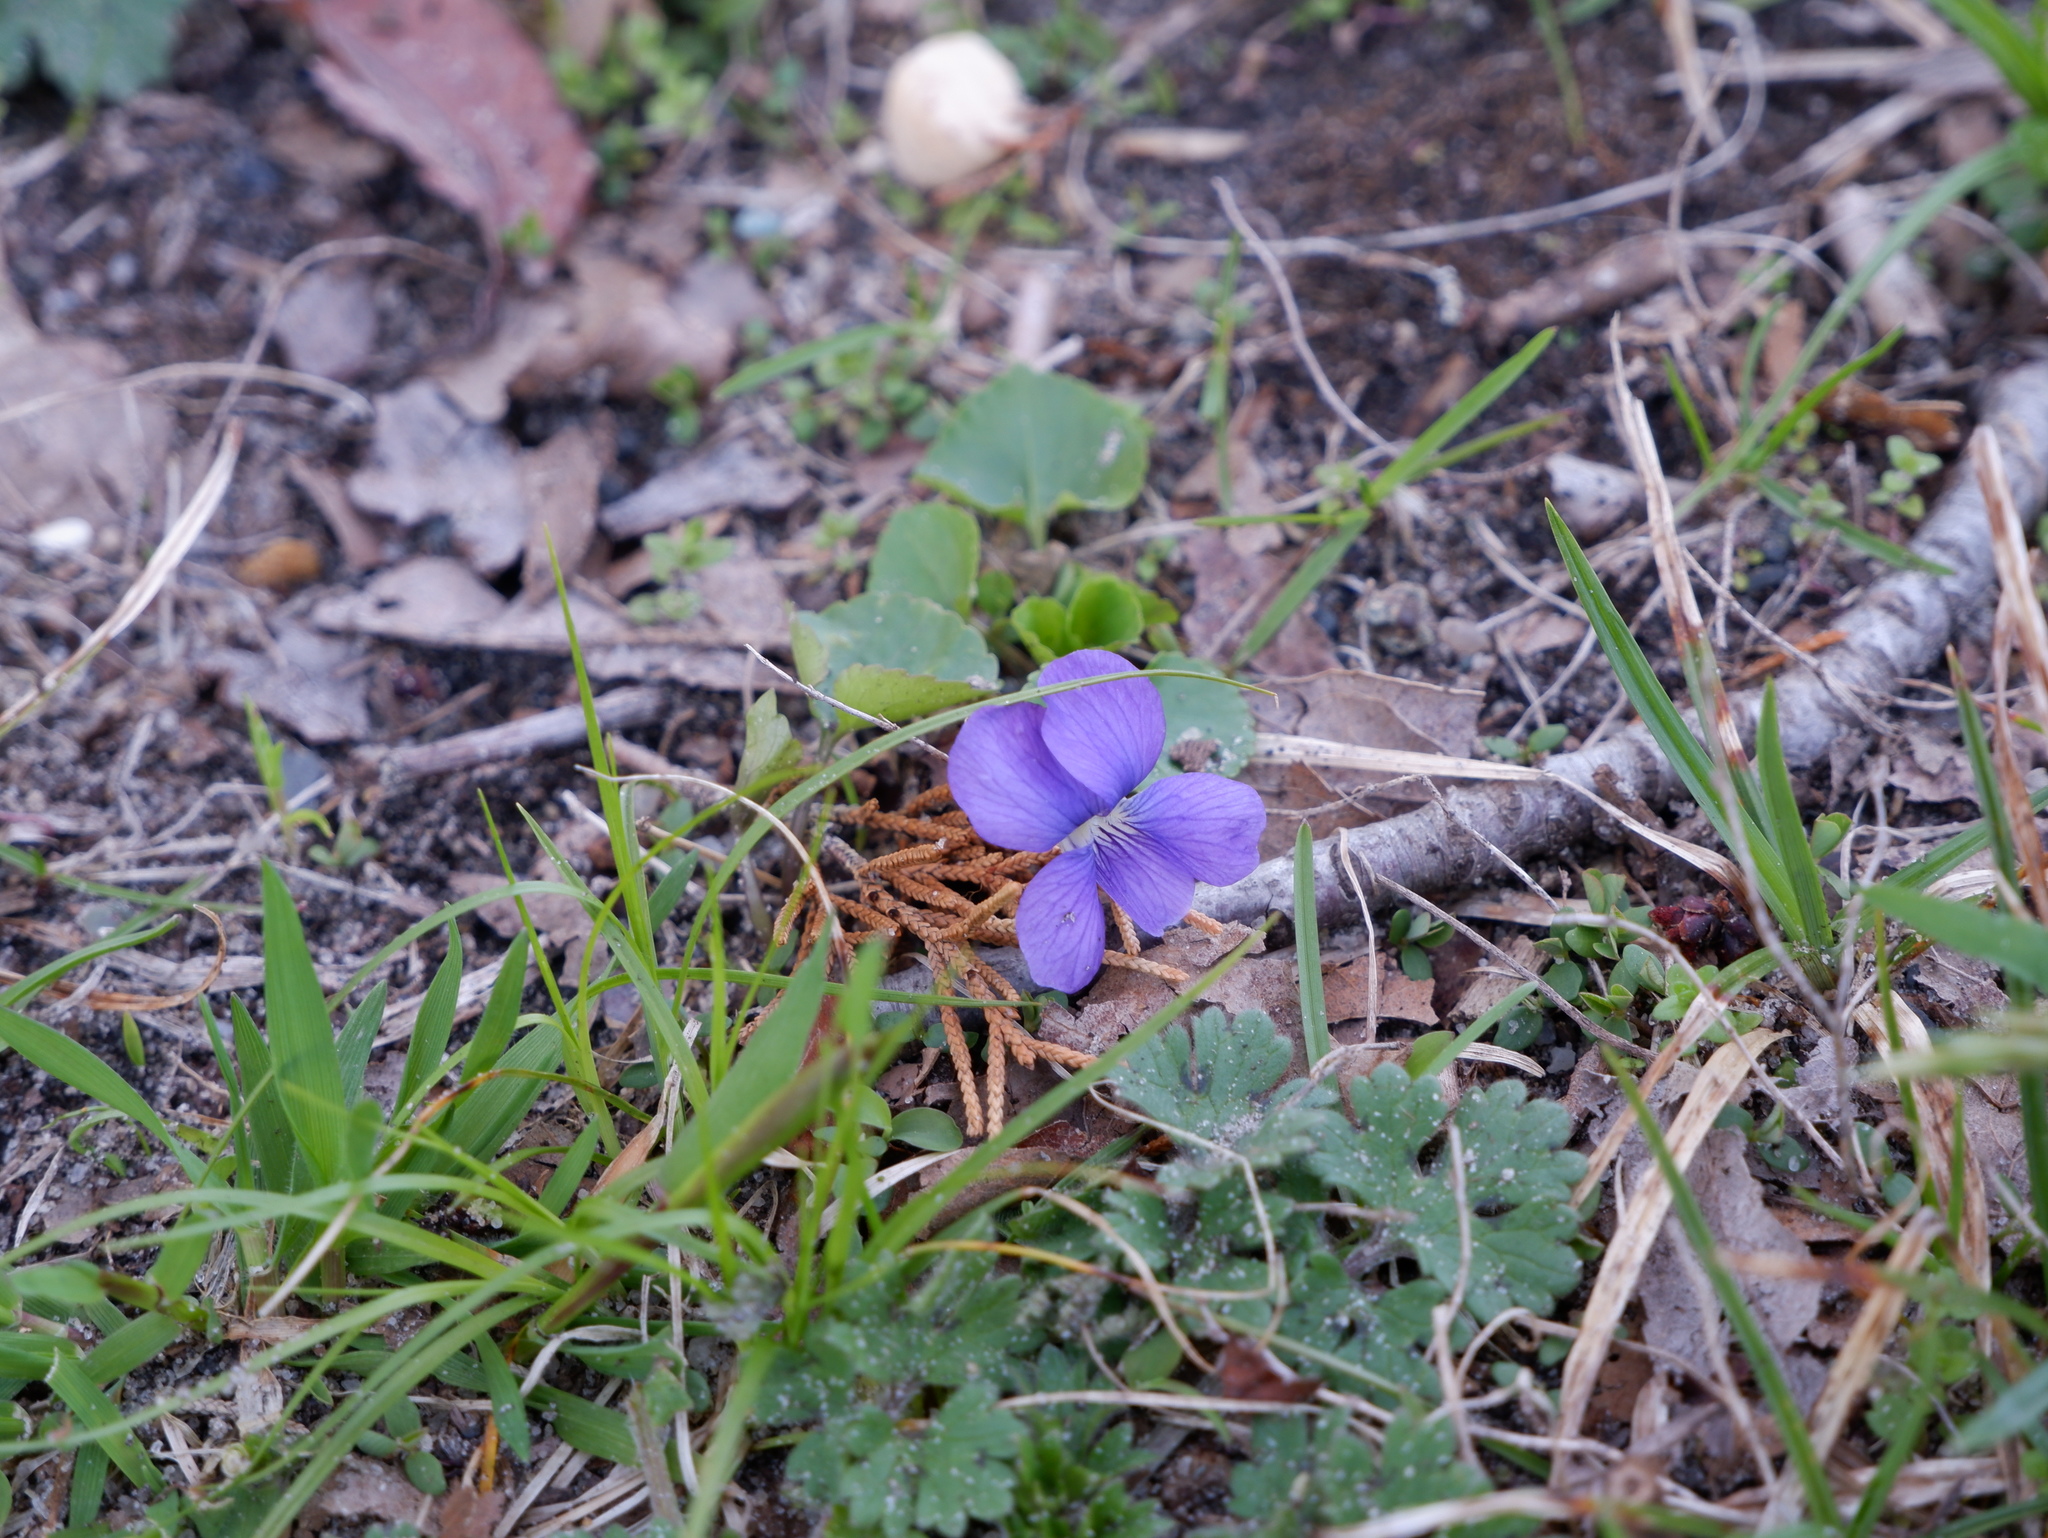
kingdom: Plantae
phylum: Tracheophyta
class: Magnoliopsida
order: Malpighiales
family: Violaceae
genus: Viola
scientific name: Viola sororia
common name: Dooryard violet
